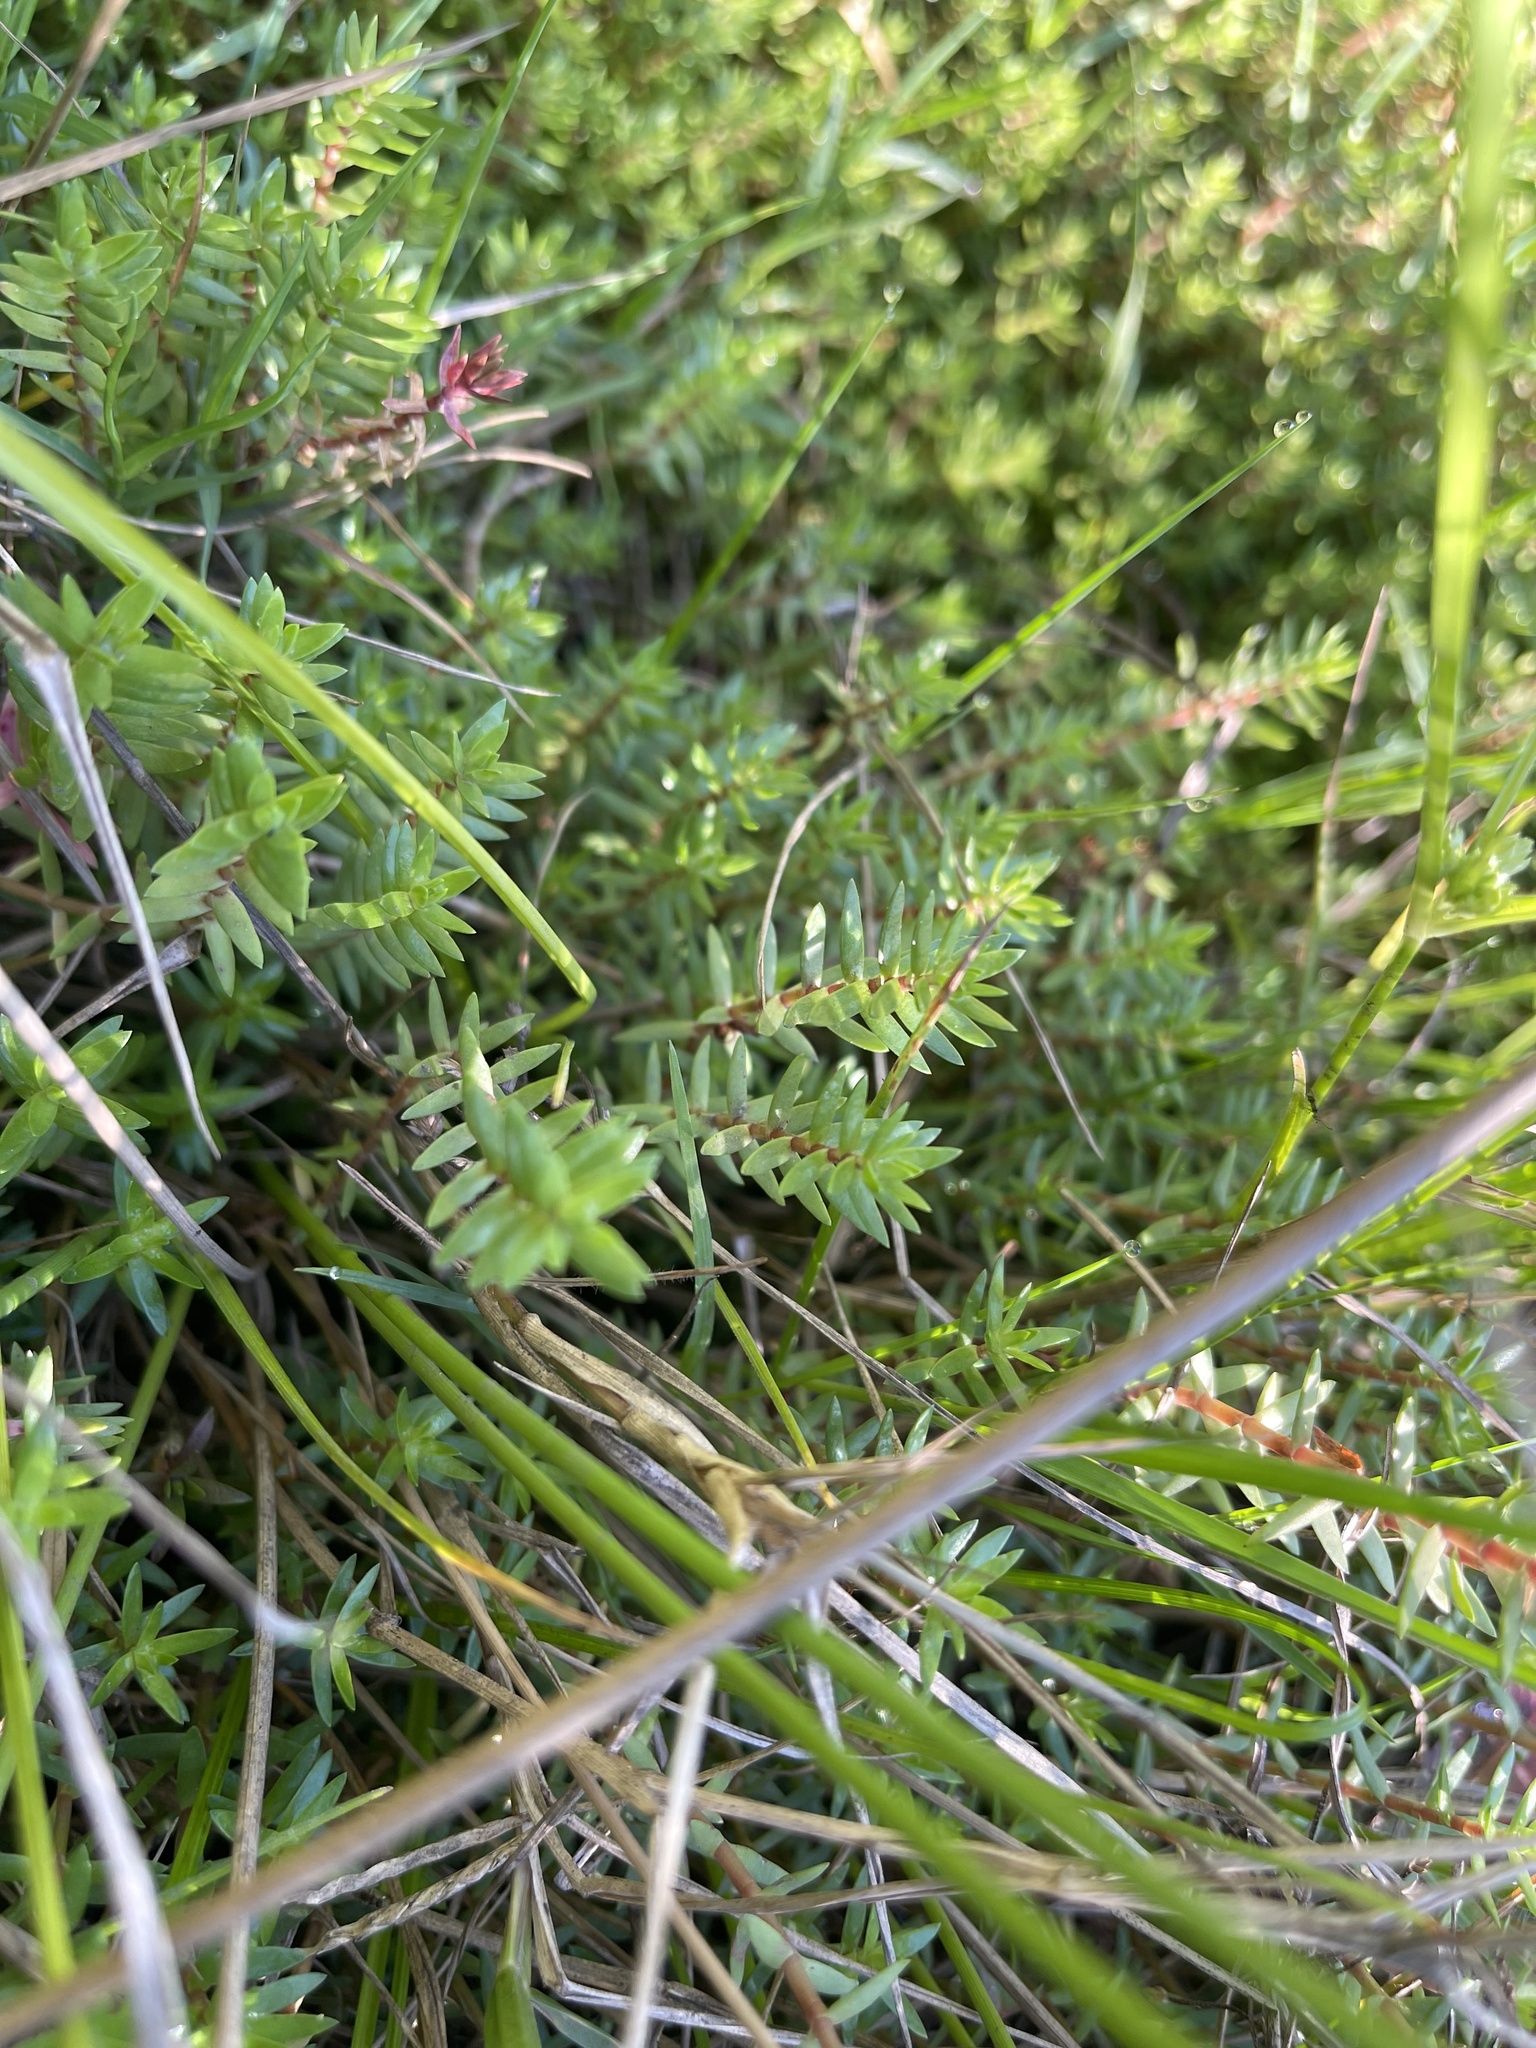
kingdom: Plantae
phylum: Tracheophyta
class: Magnoliopsida
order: Saxifragales
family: Crassulaceae
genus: Crassula
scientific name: Crassula helmsii
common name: New zealand pigmyweed
